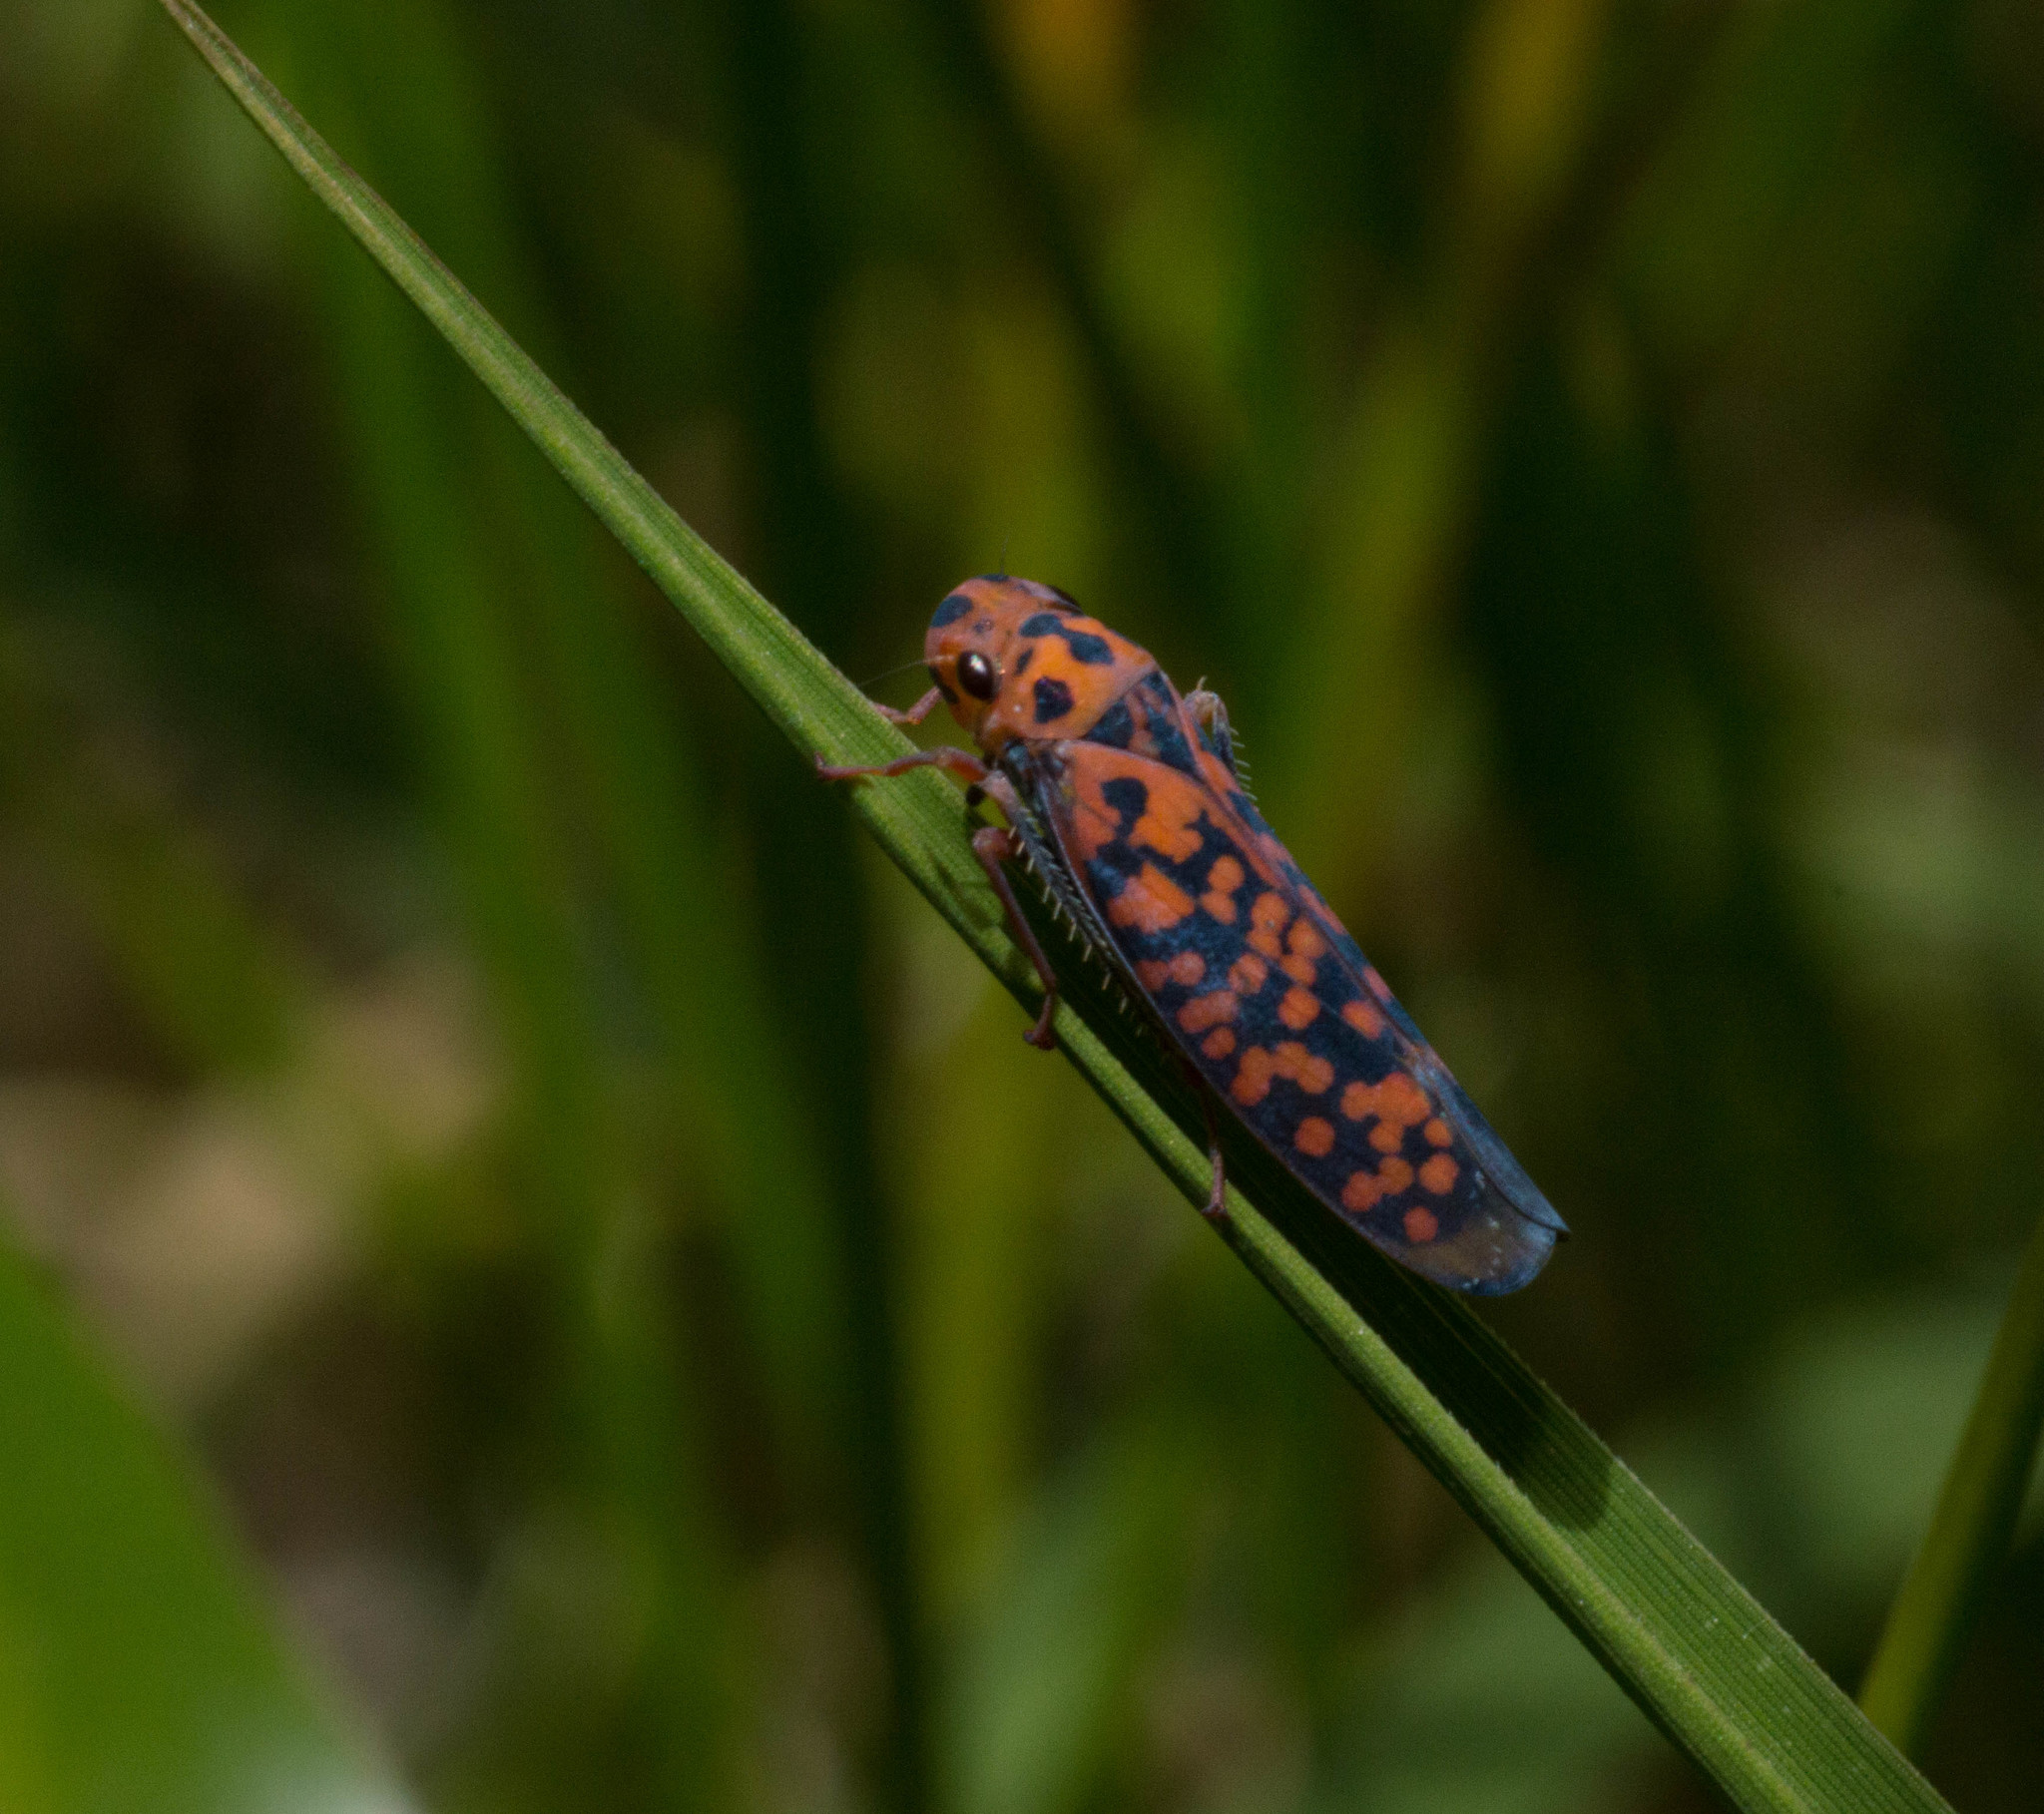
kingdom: Animalia
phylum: Arthropoda
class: Insecta
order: Hemiptera
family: Cicadellidae
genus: Pawiloma
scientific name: Pawiloma victima
